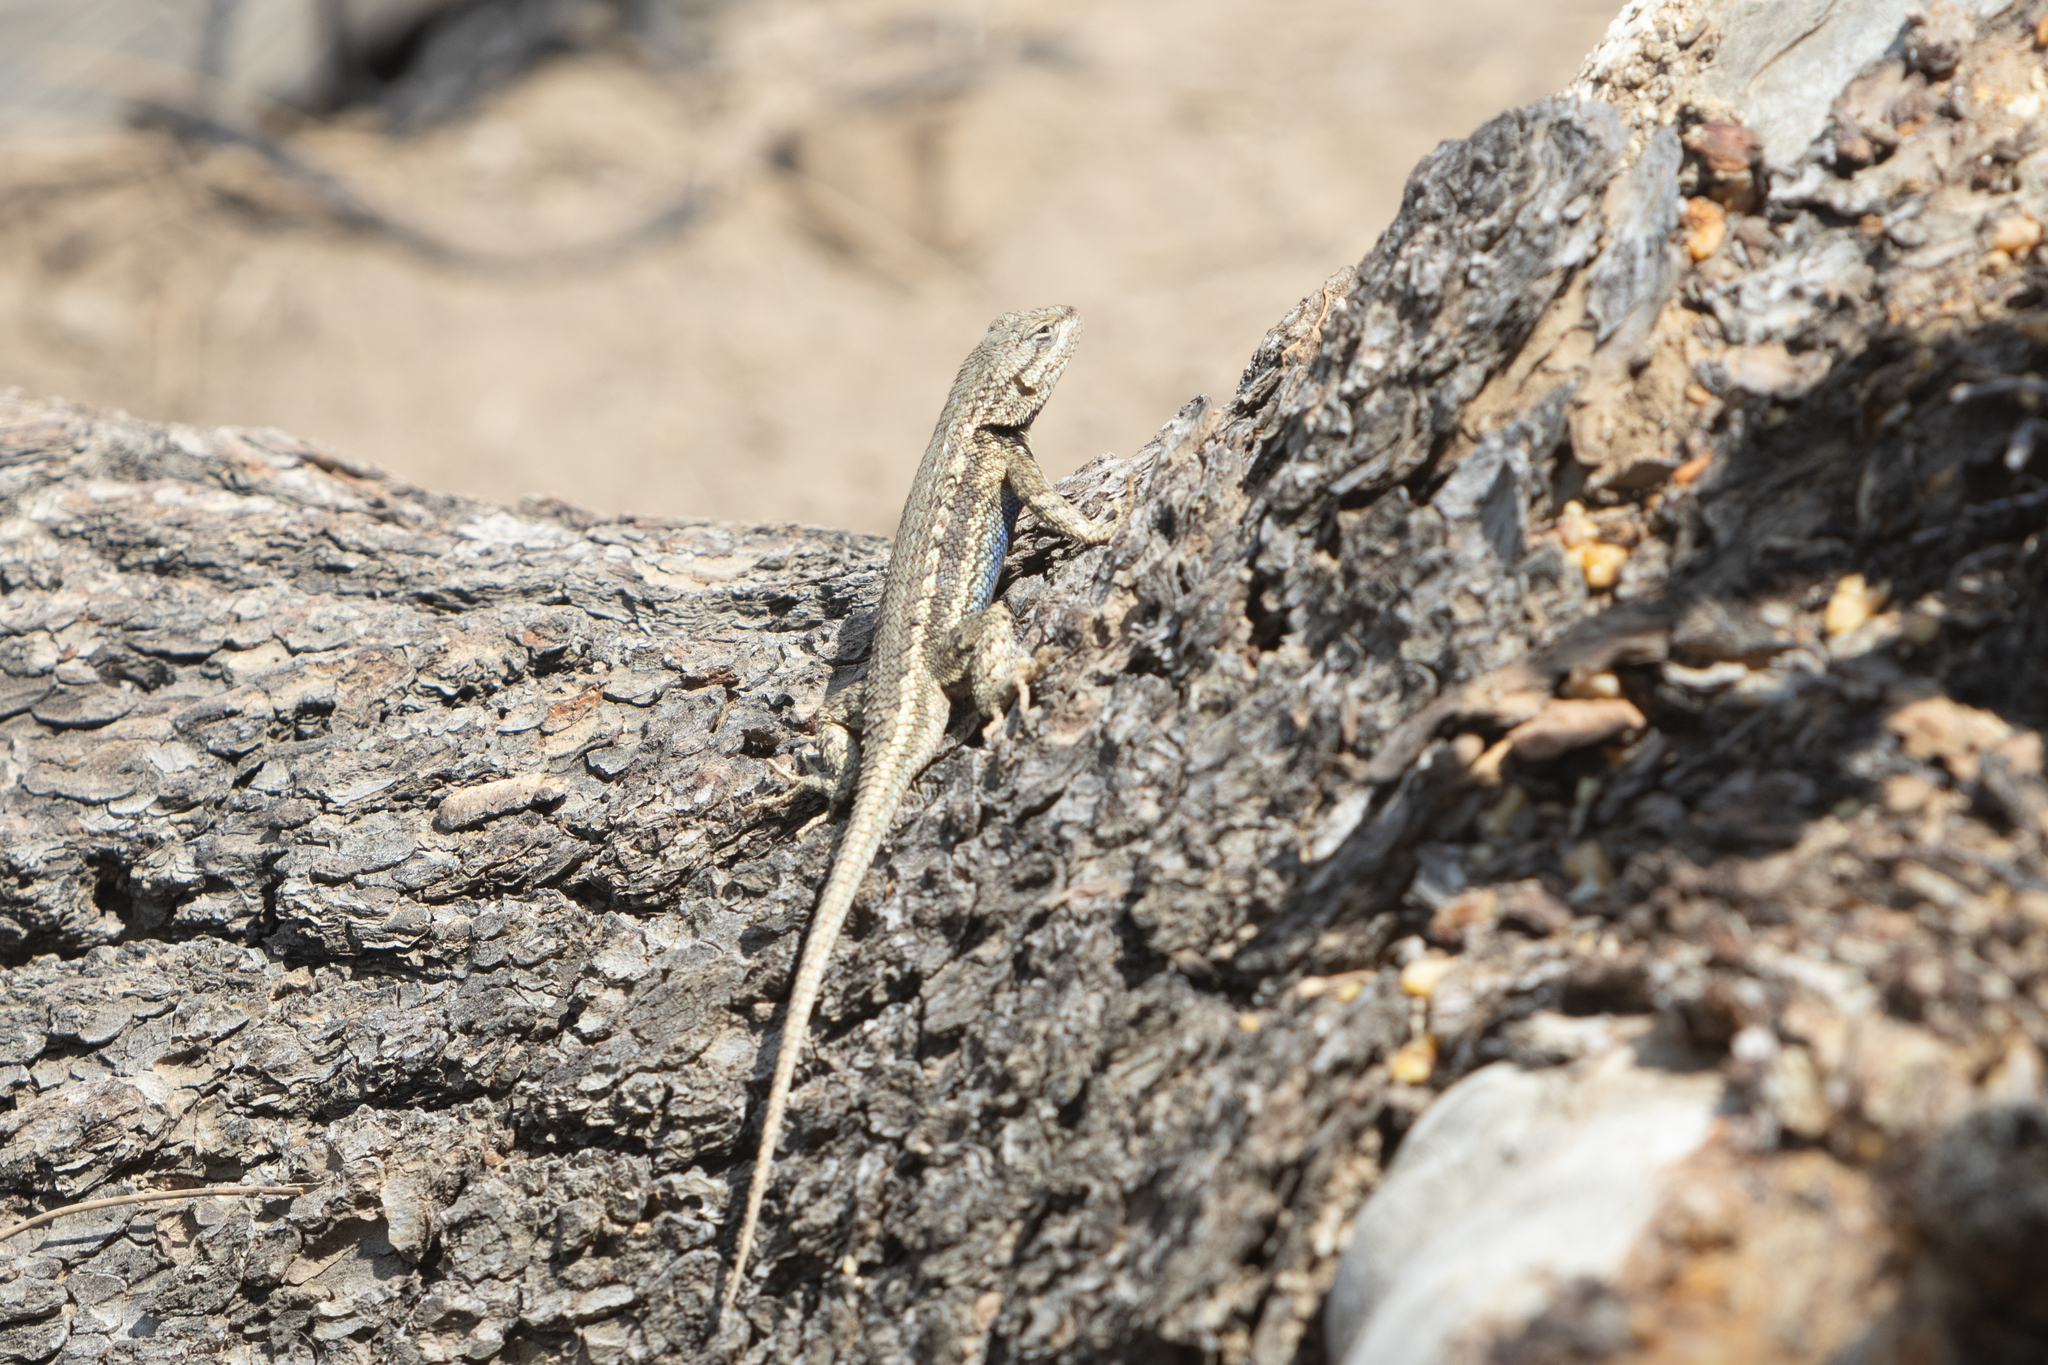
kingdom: Animalia
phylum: Chordata
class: Squamata
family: Phrynosomatidae
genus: Sceloporus
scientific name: Sceloporus consobrinus
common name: Southern prairie lizard
